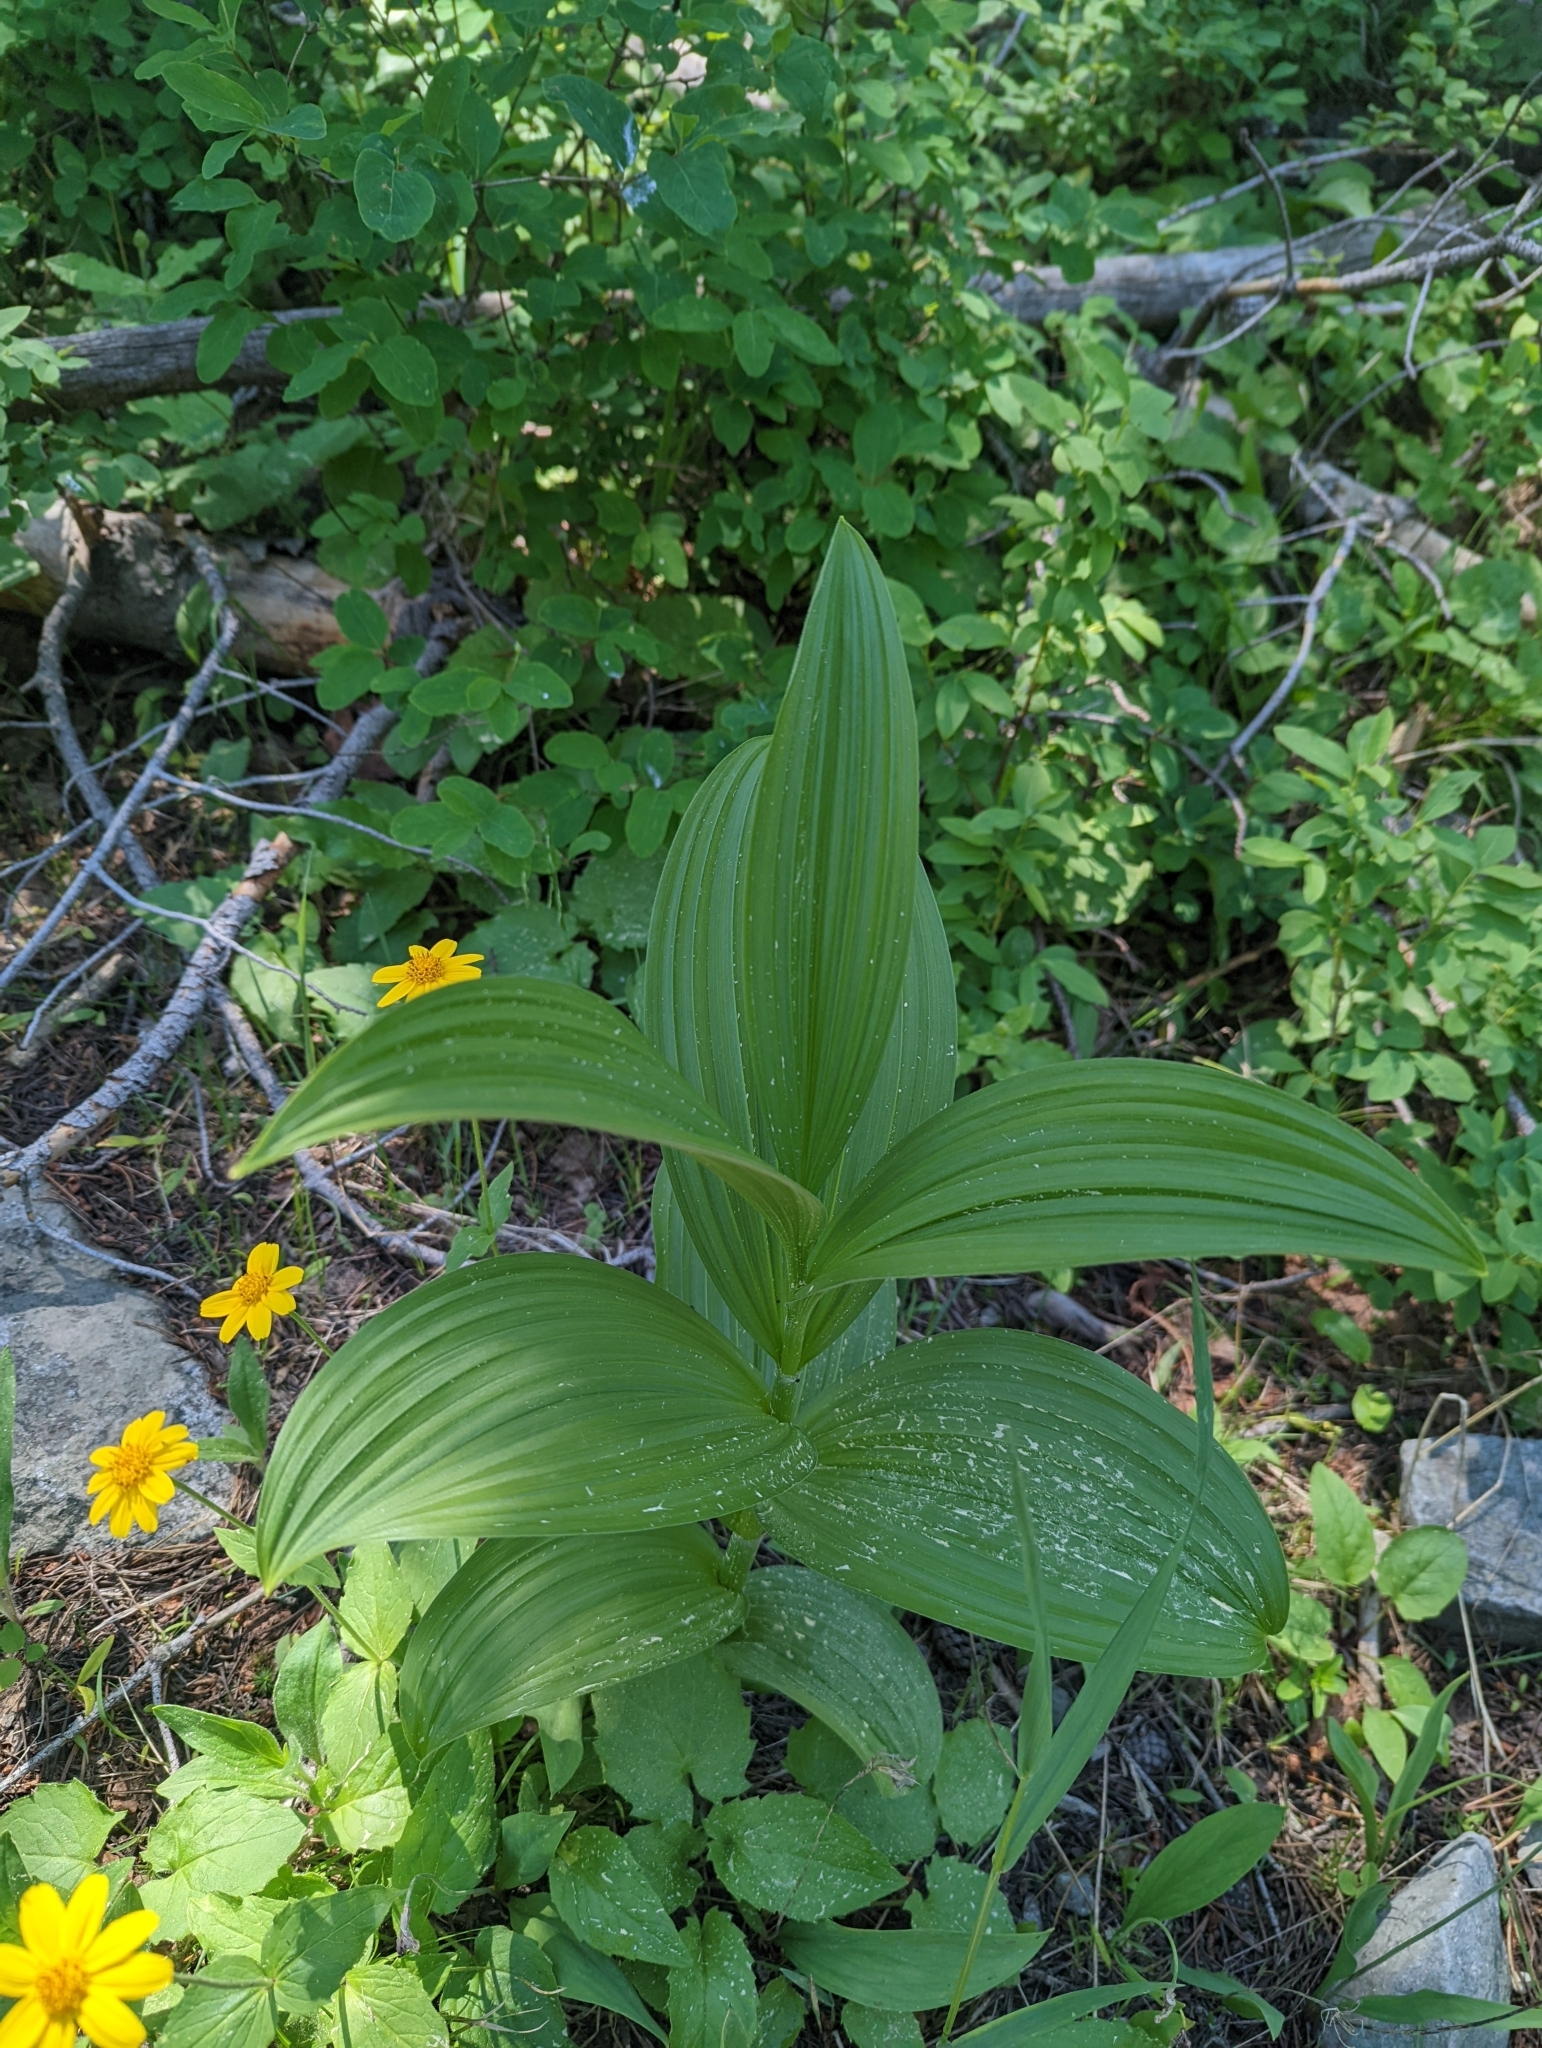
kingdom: Plantae
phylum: Tracheophyta
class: Liliopsida
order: Liliales
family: Melanthiaceae
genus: Veratrum
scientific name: Veratrum viride
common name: American false hellebore
